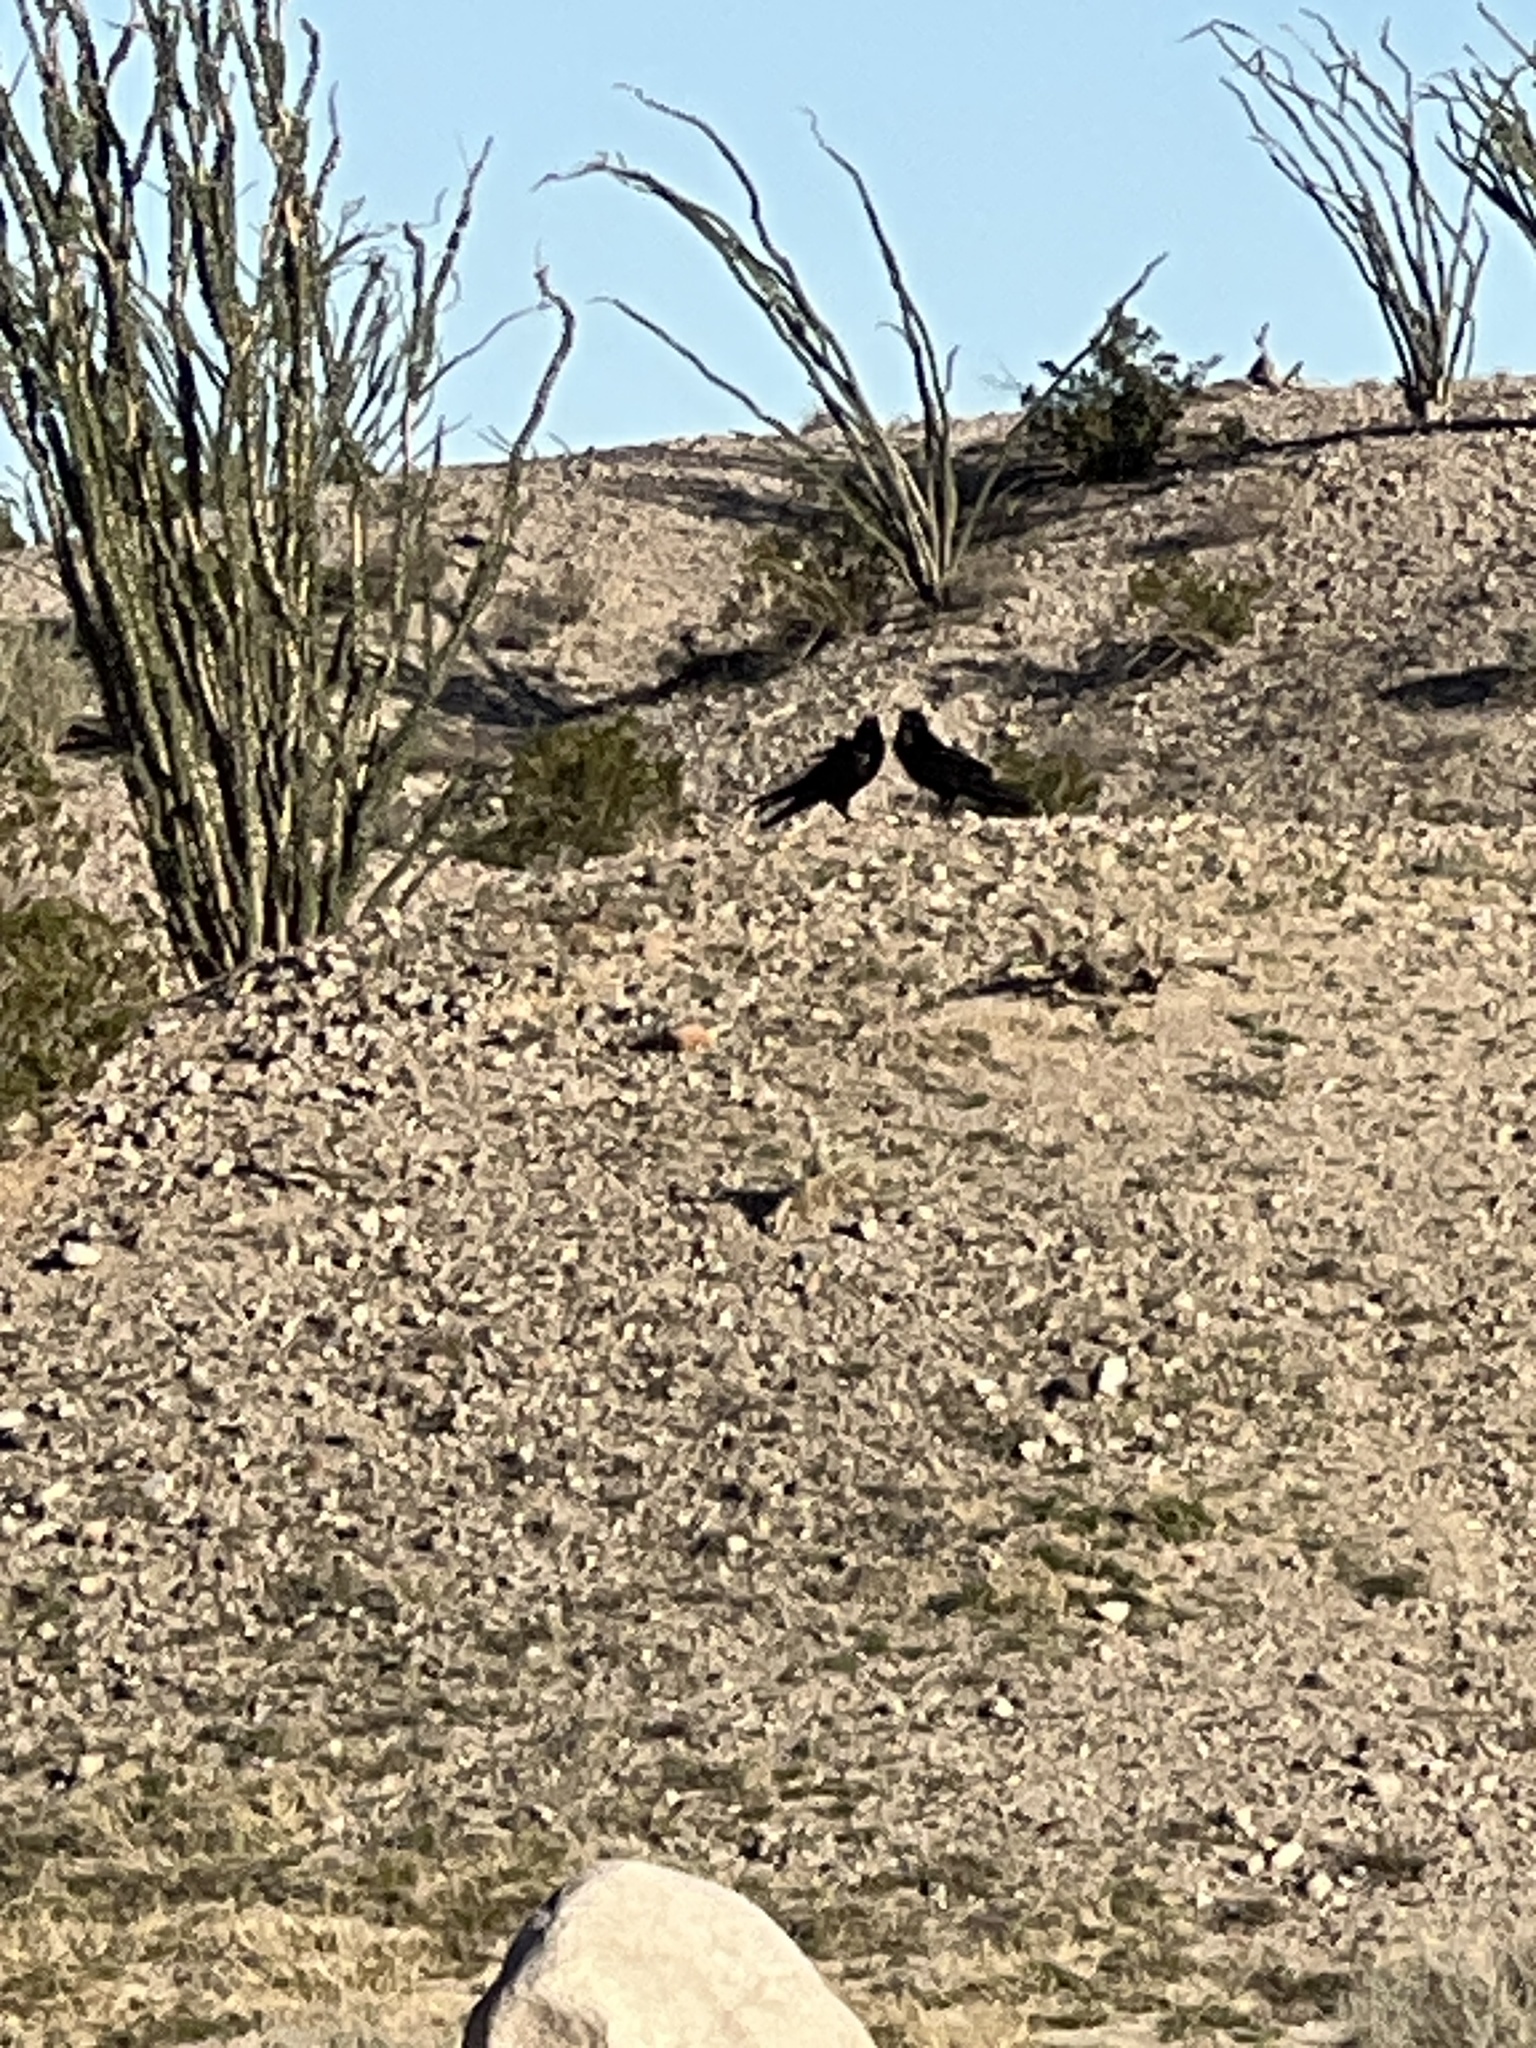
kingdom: Animalia
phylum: Chordata
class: Aves
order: Passeriformes
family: Corvidae
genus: Corvus
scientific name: Corvus corax
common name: Common raven
